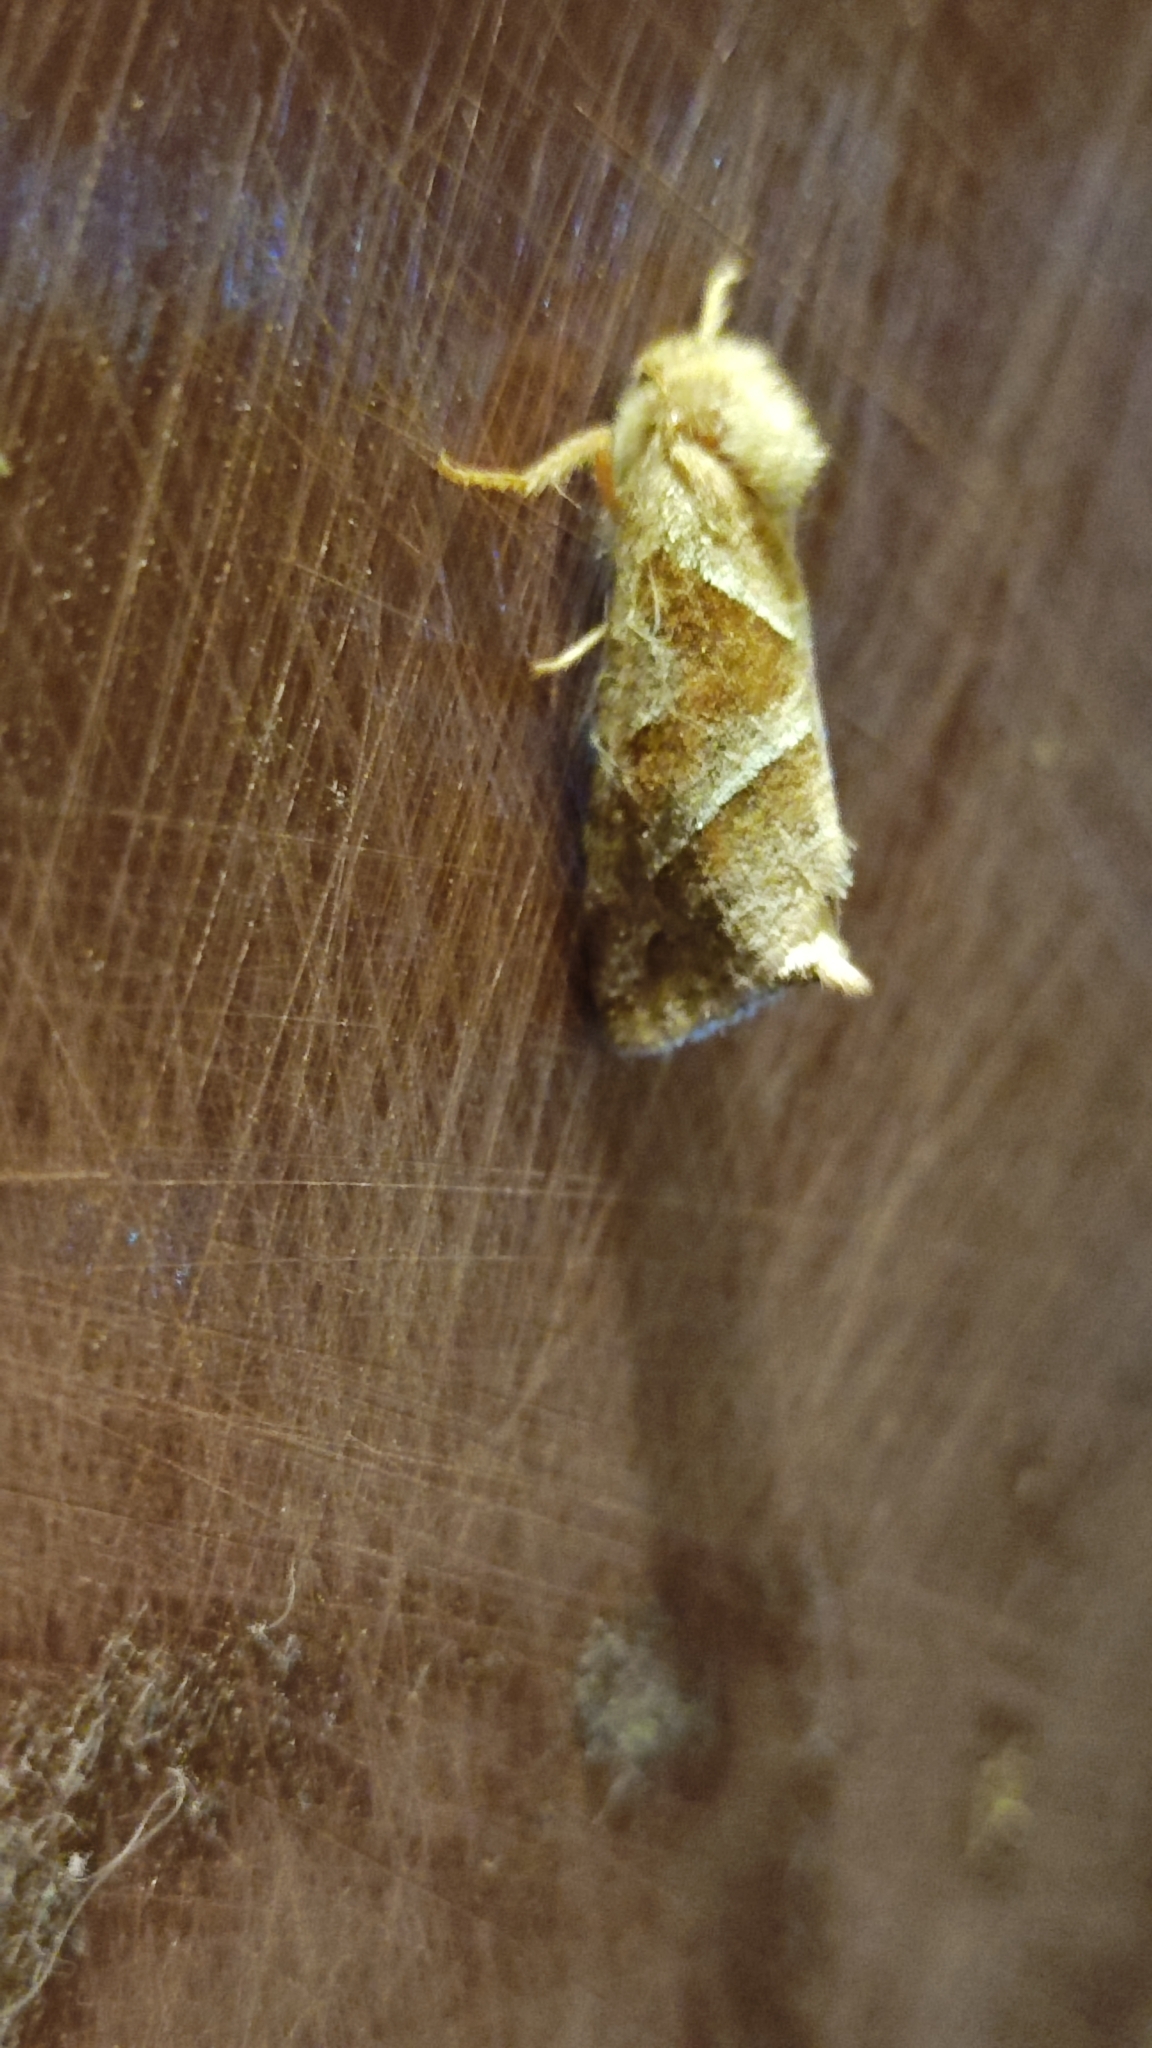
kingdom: Animalia
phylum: Arthropoda
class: Insecta
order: Lepidoptera
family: Hepialidae
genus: Triodia
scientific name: Triodia sylvina
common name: Orange swift
